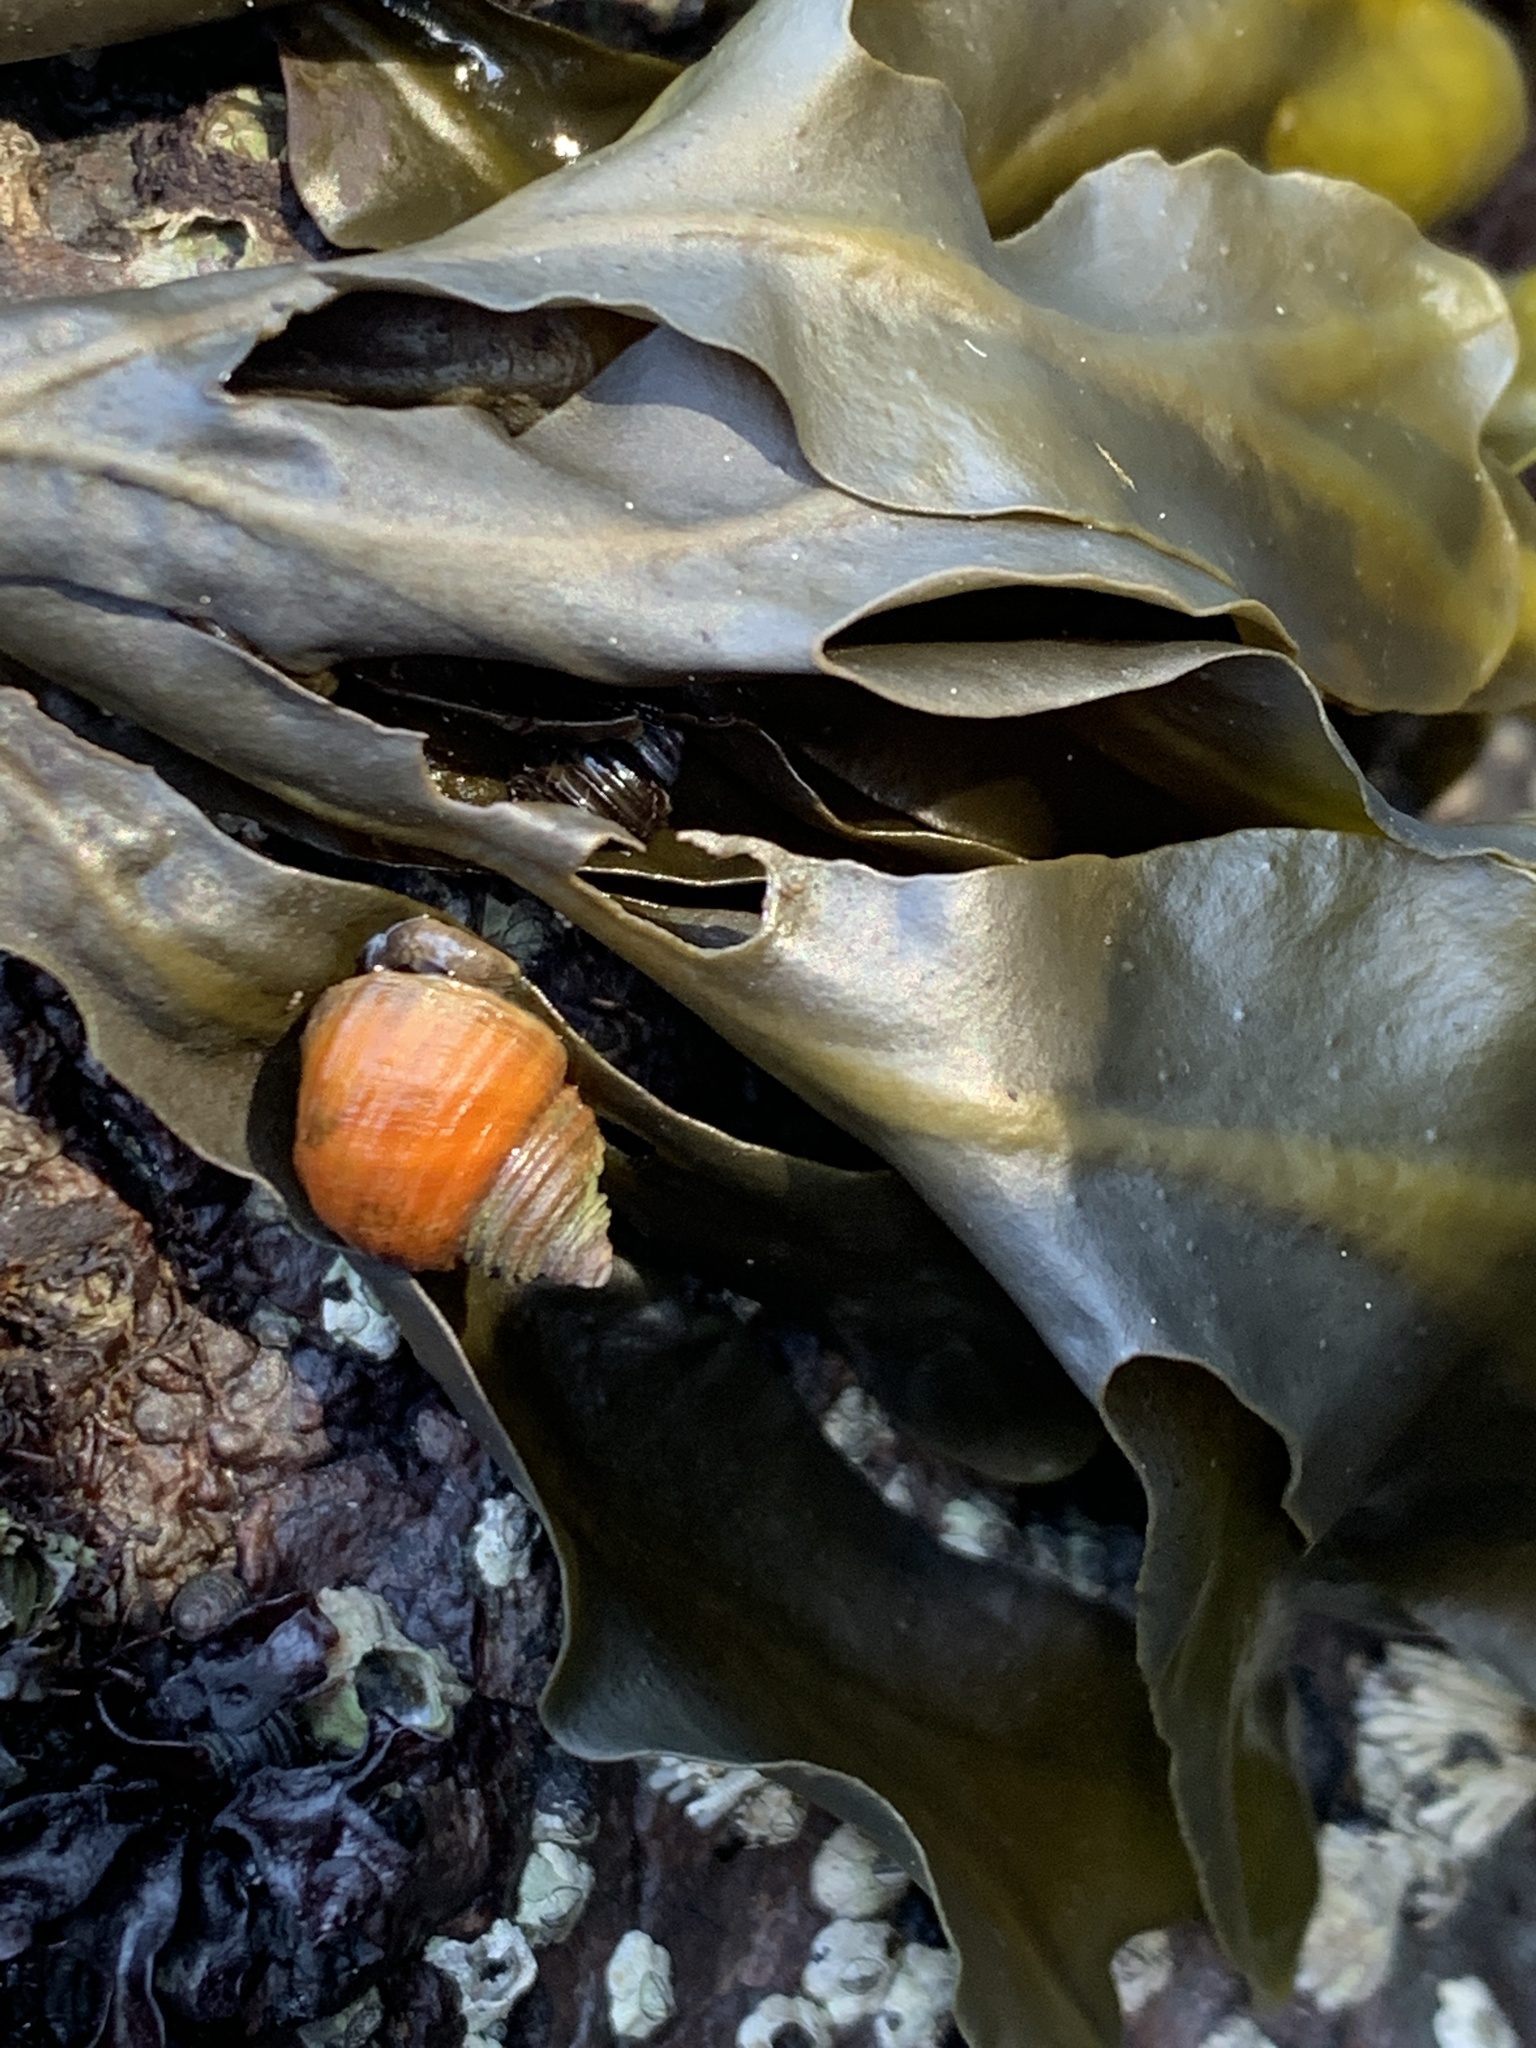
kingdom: Animalia
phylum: Mollusca
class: Gastropoda
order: Littorinimorpha
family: Littorinidae
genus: Littorina
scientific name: Littorina sitkana
